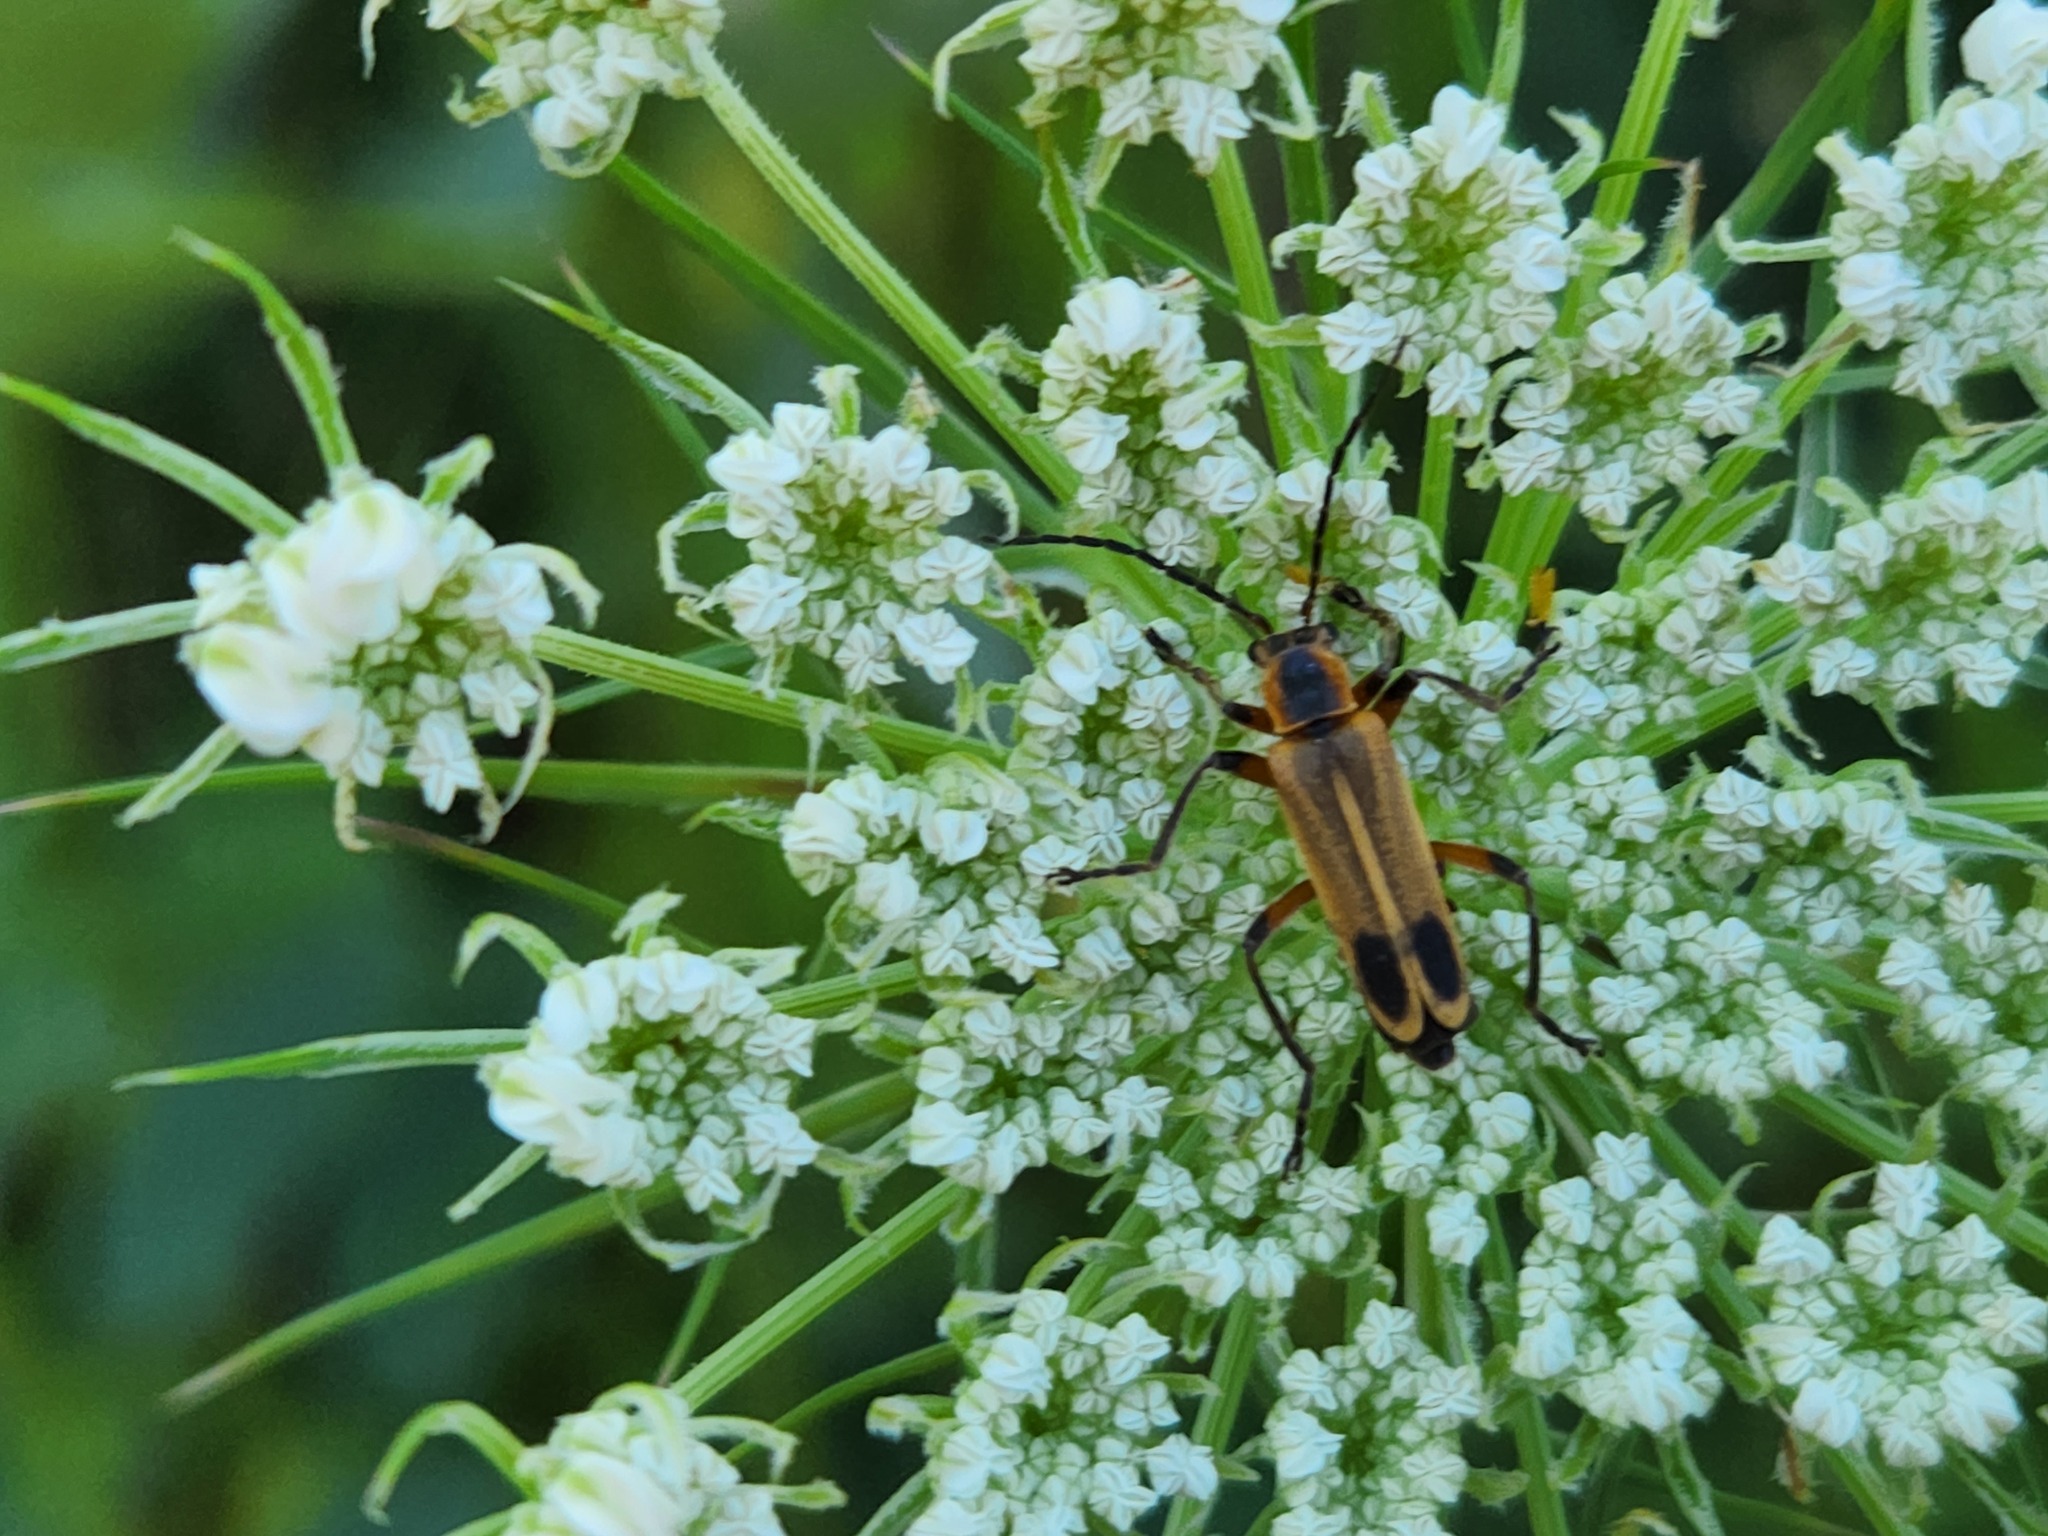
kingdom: Animalia
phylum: Arthropoda
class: Insecta
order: Coleoptera
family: Cantharidae
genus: Chauliognathus
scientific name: Chauliognathus marginatus
